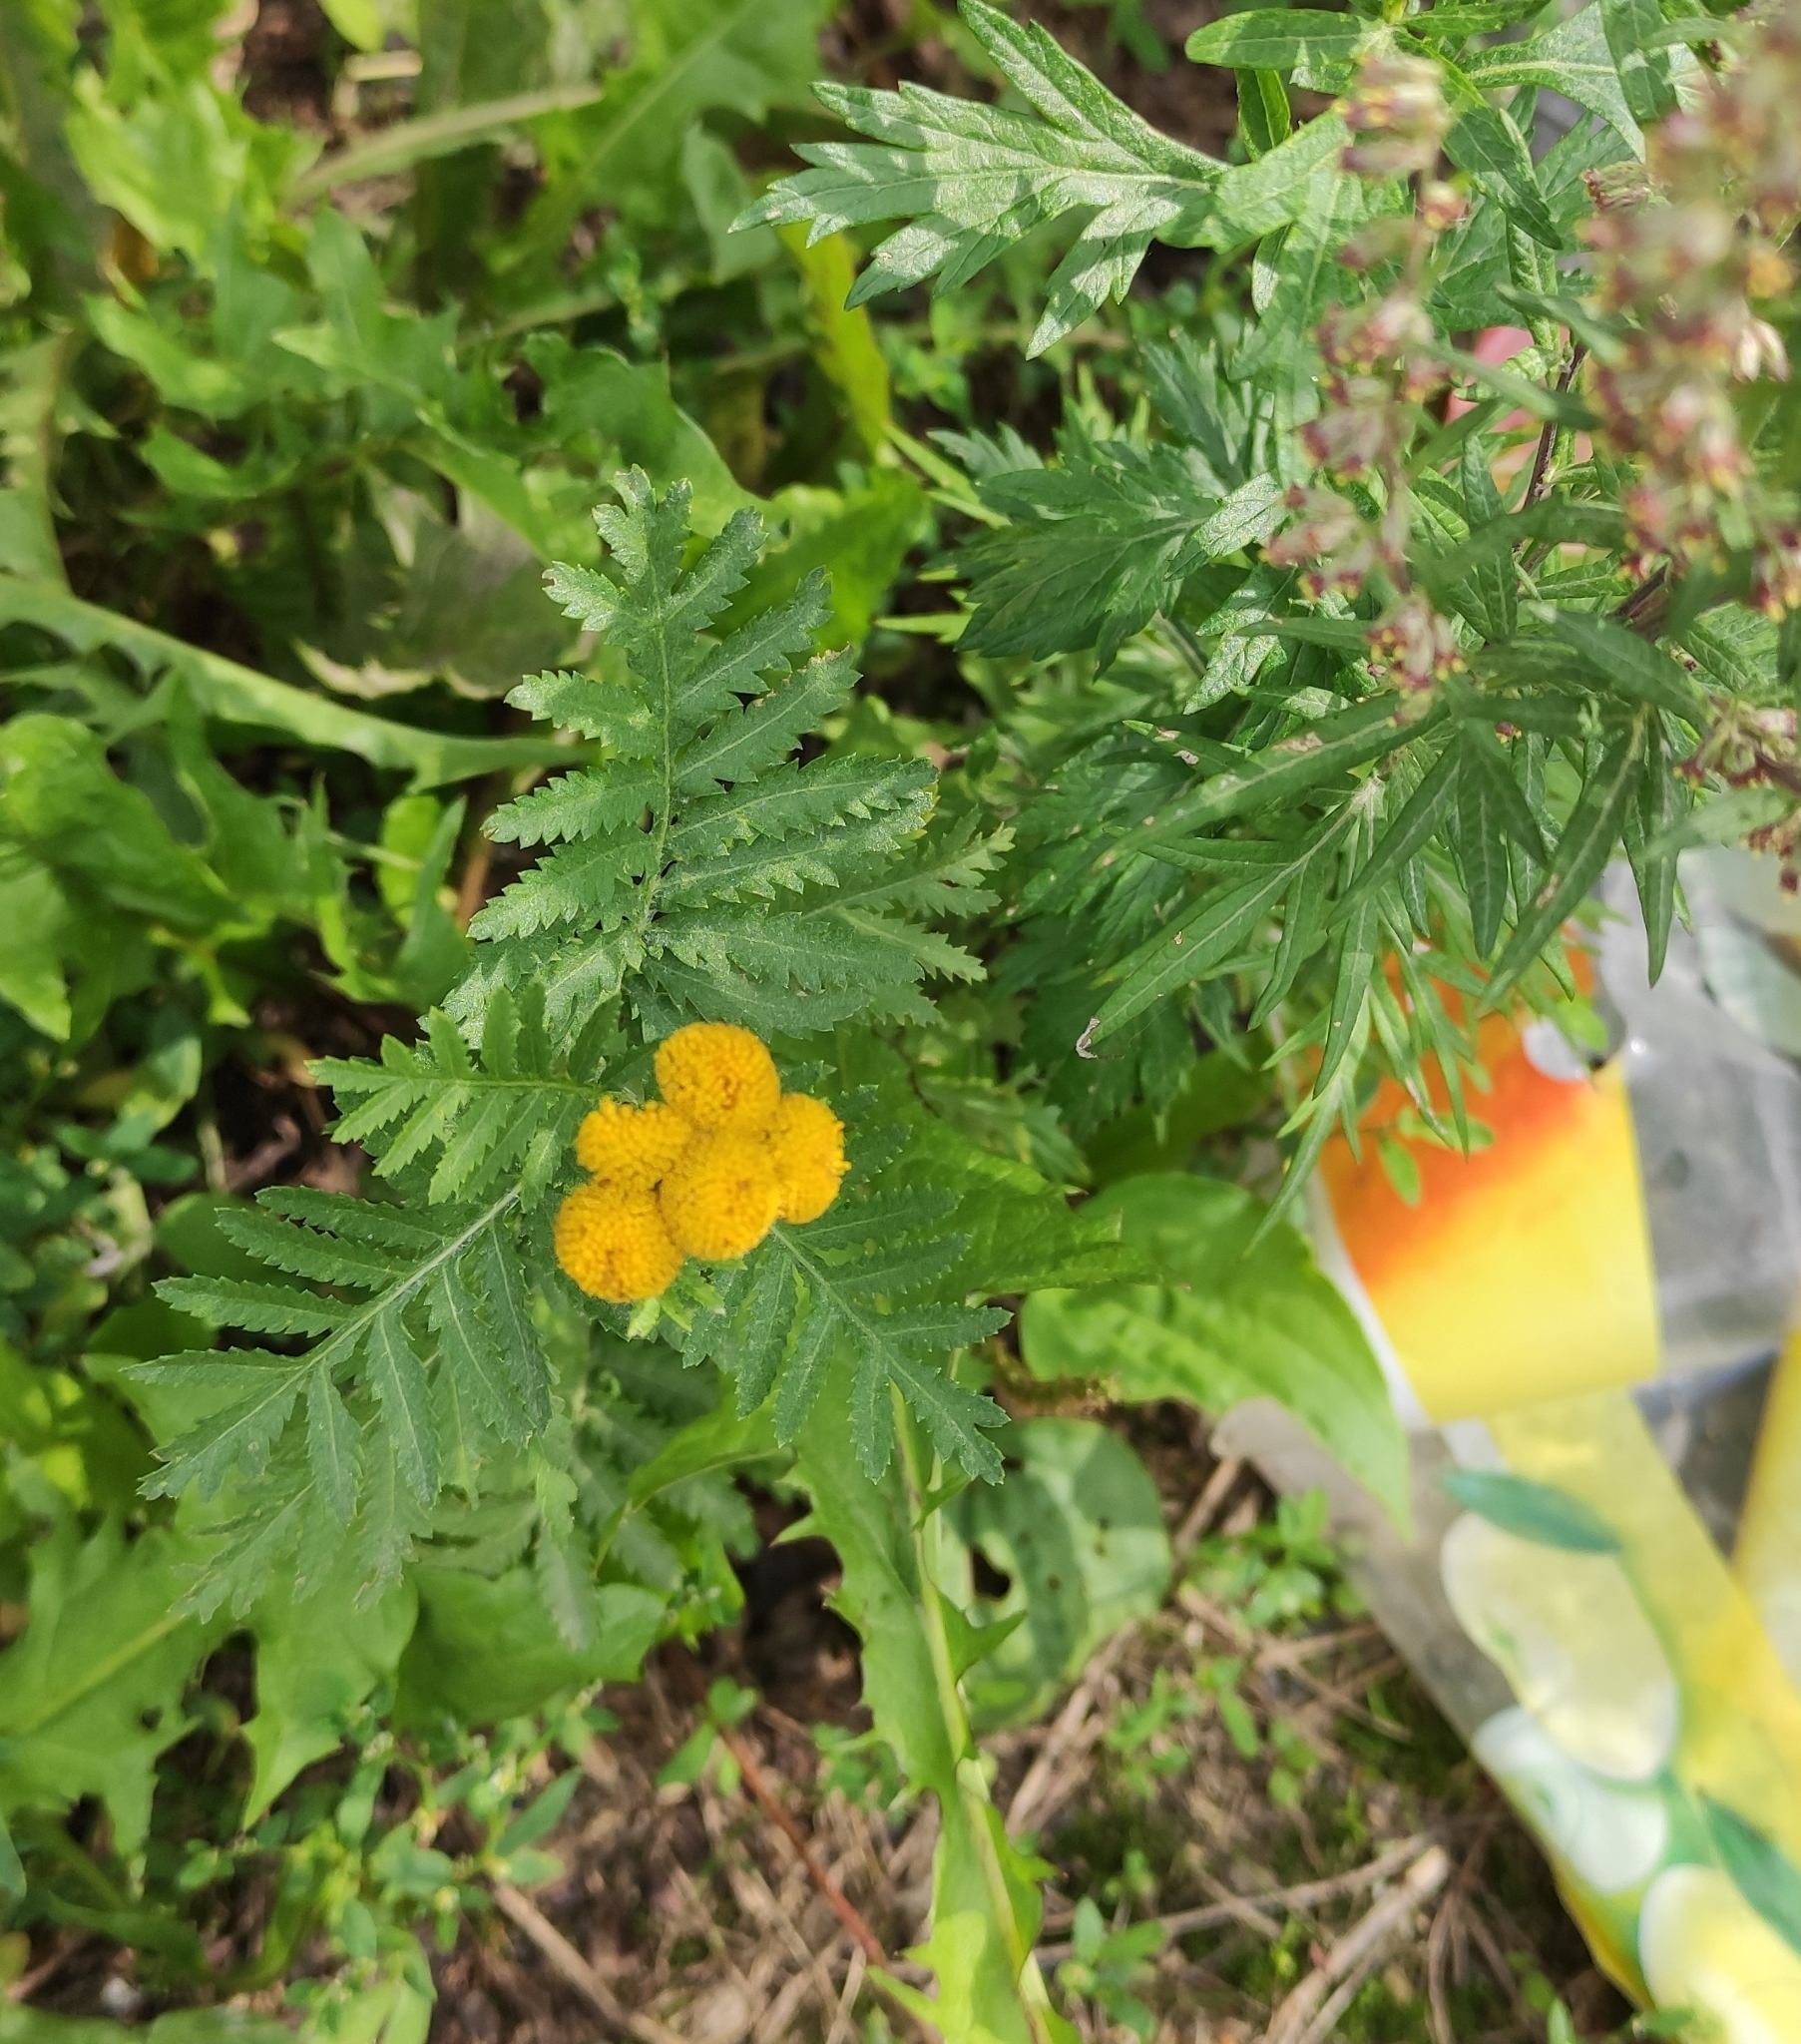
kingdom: Plantae
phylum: Tracheophyta
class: Magnoliopsida
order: Asterales
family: Asteraceae
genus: Tanacetum
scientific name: Tanacetum vulgare
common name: Common tansy
